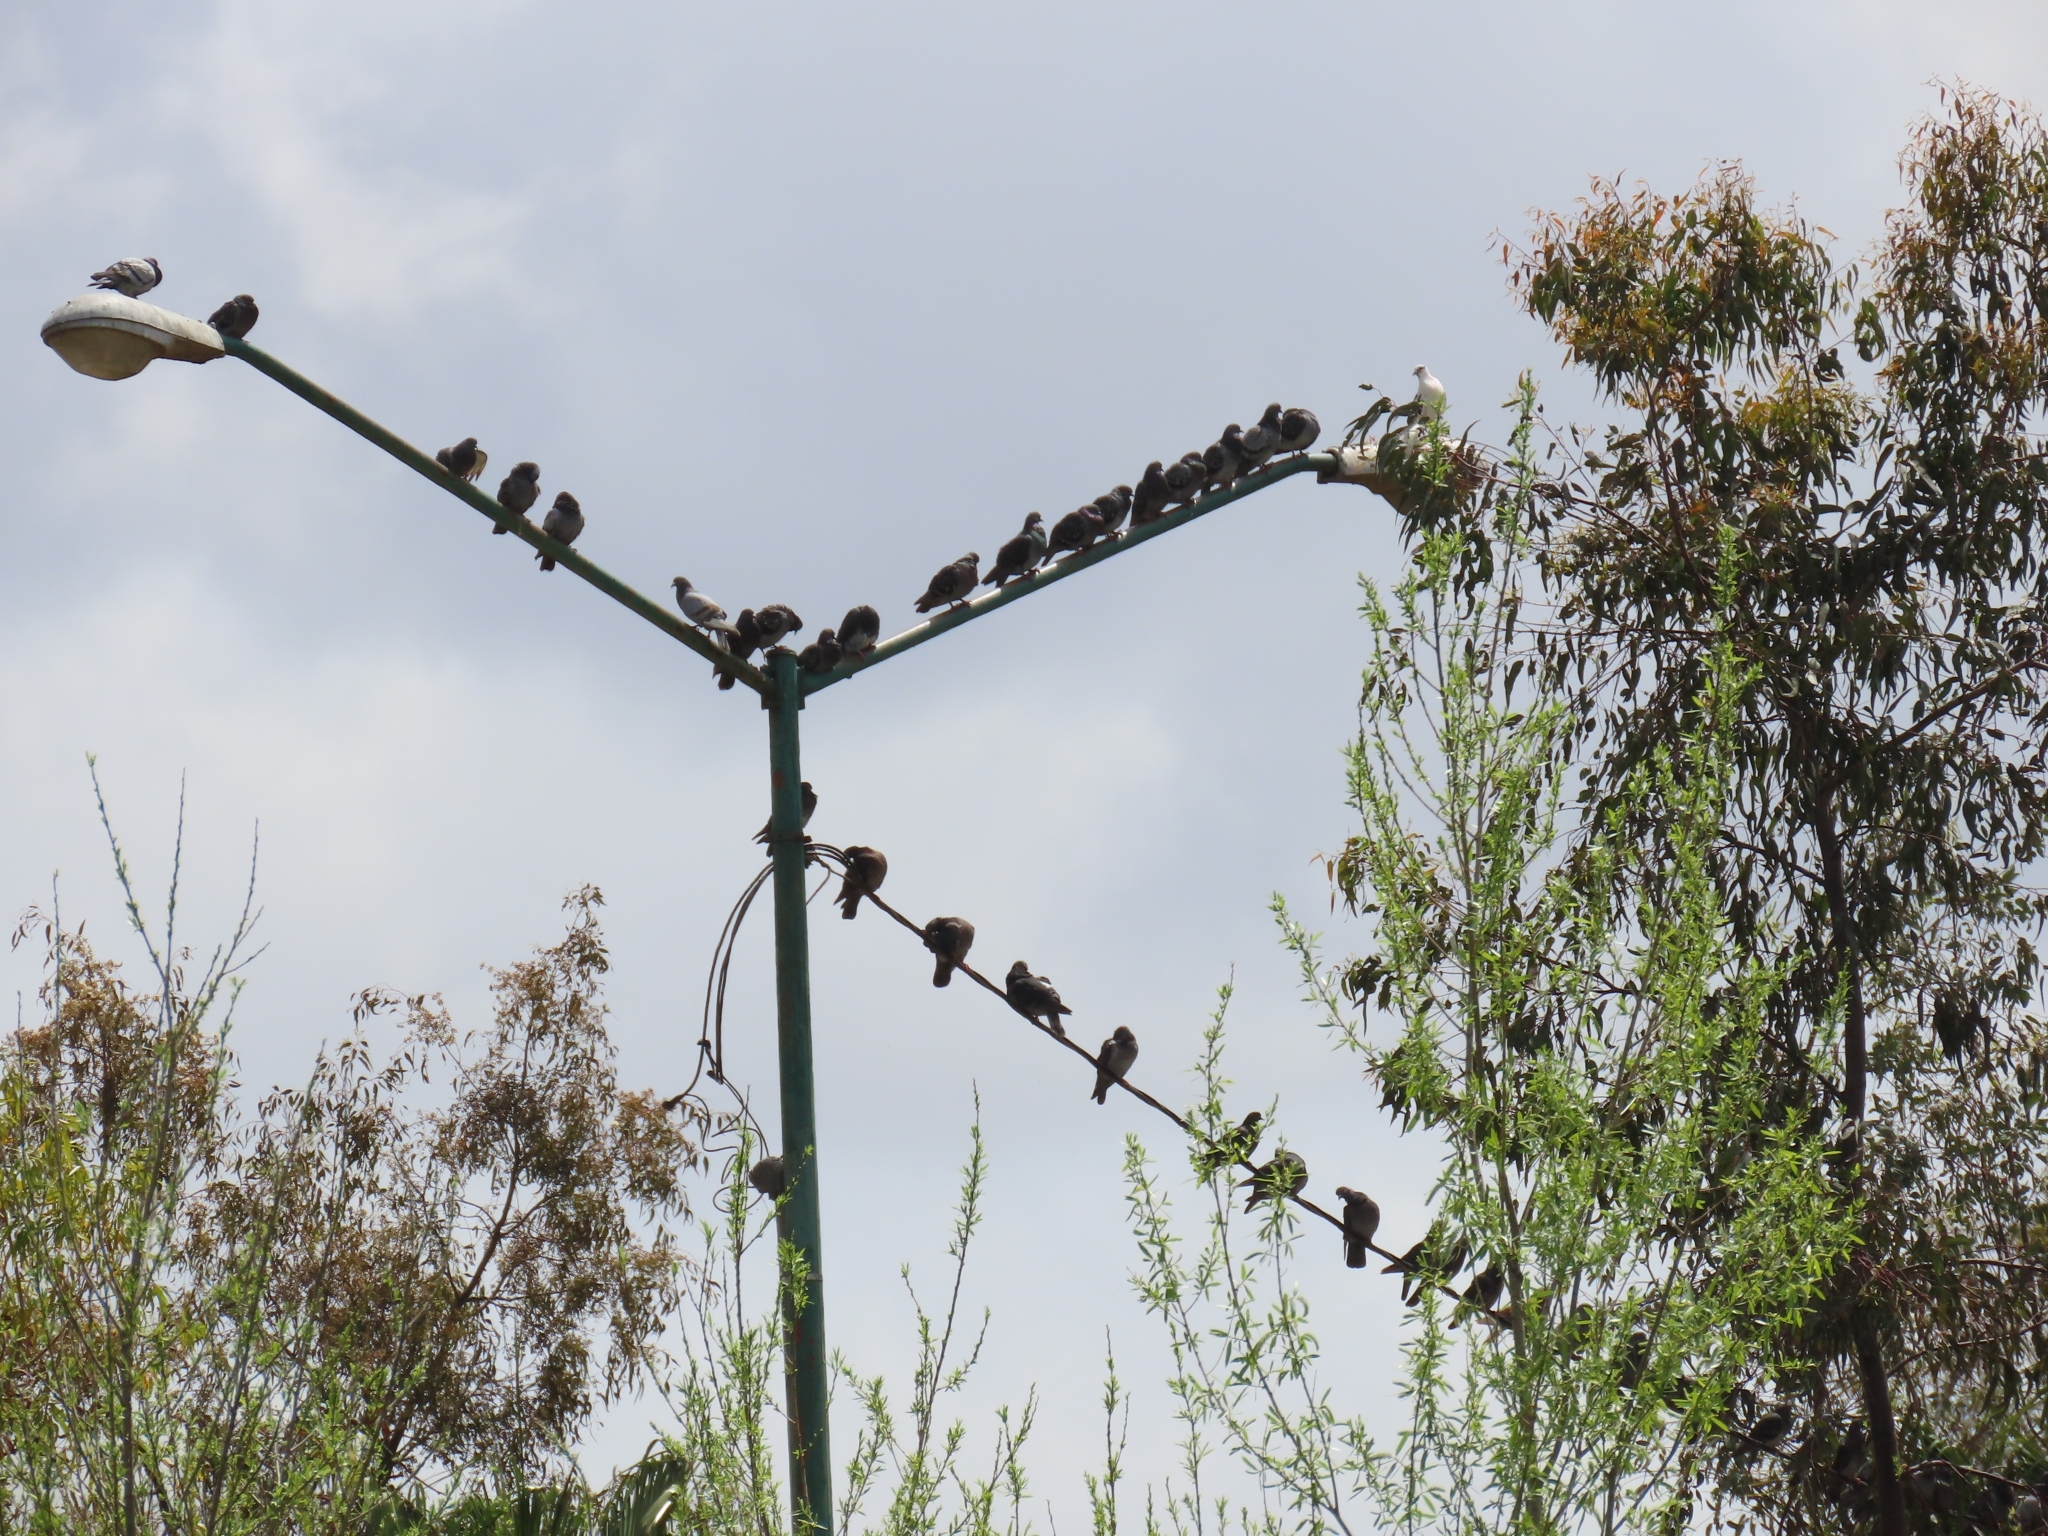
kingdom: Animalia
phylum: Chordata
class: Aves
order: Columbiformes
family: Columbidae
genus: Columba
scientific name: Columba livia
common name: Rock pigeon
